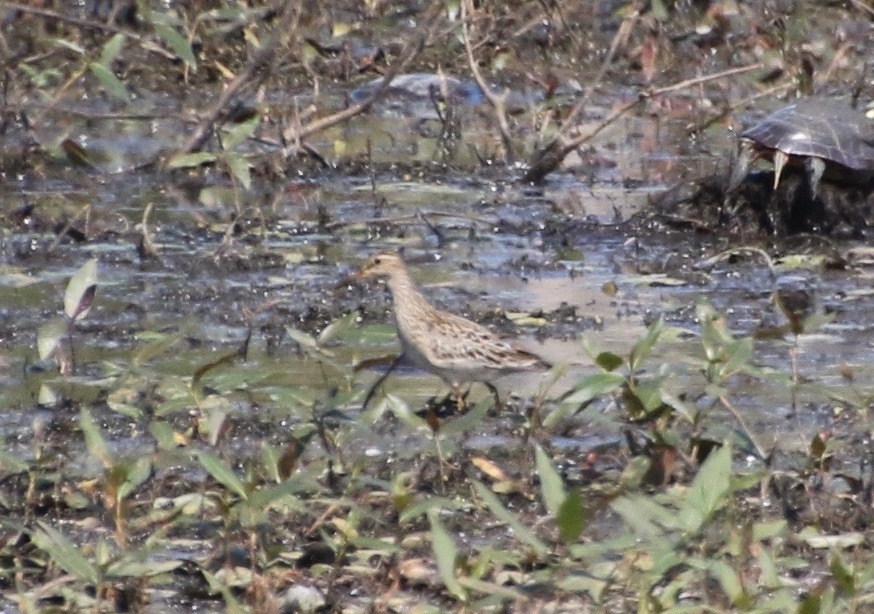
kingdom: Animalia
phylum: Chordata
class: Aves
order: Charadriiformes
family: Scolopacidae
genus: Calidris
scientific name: Calidris melanotos
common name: Pectoral sandpiper
